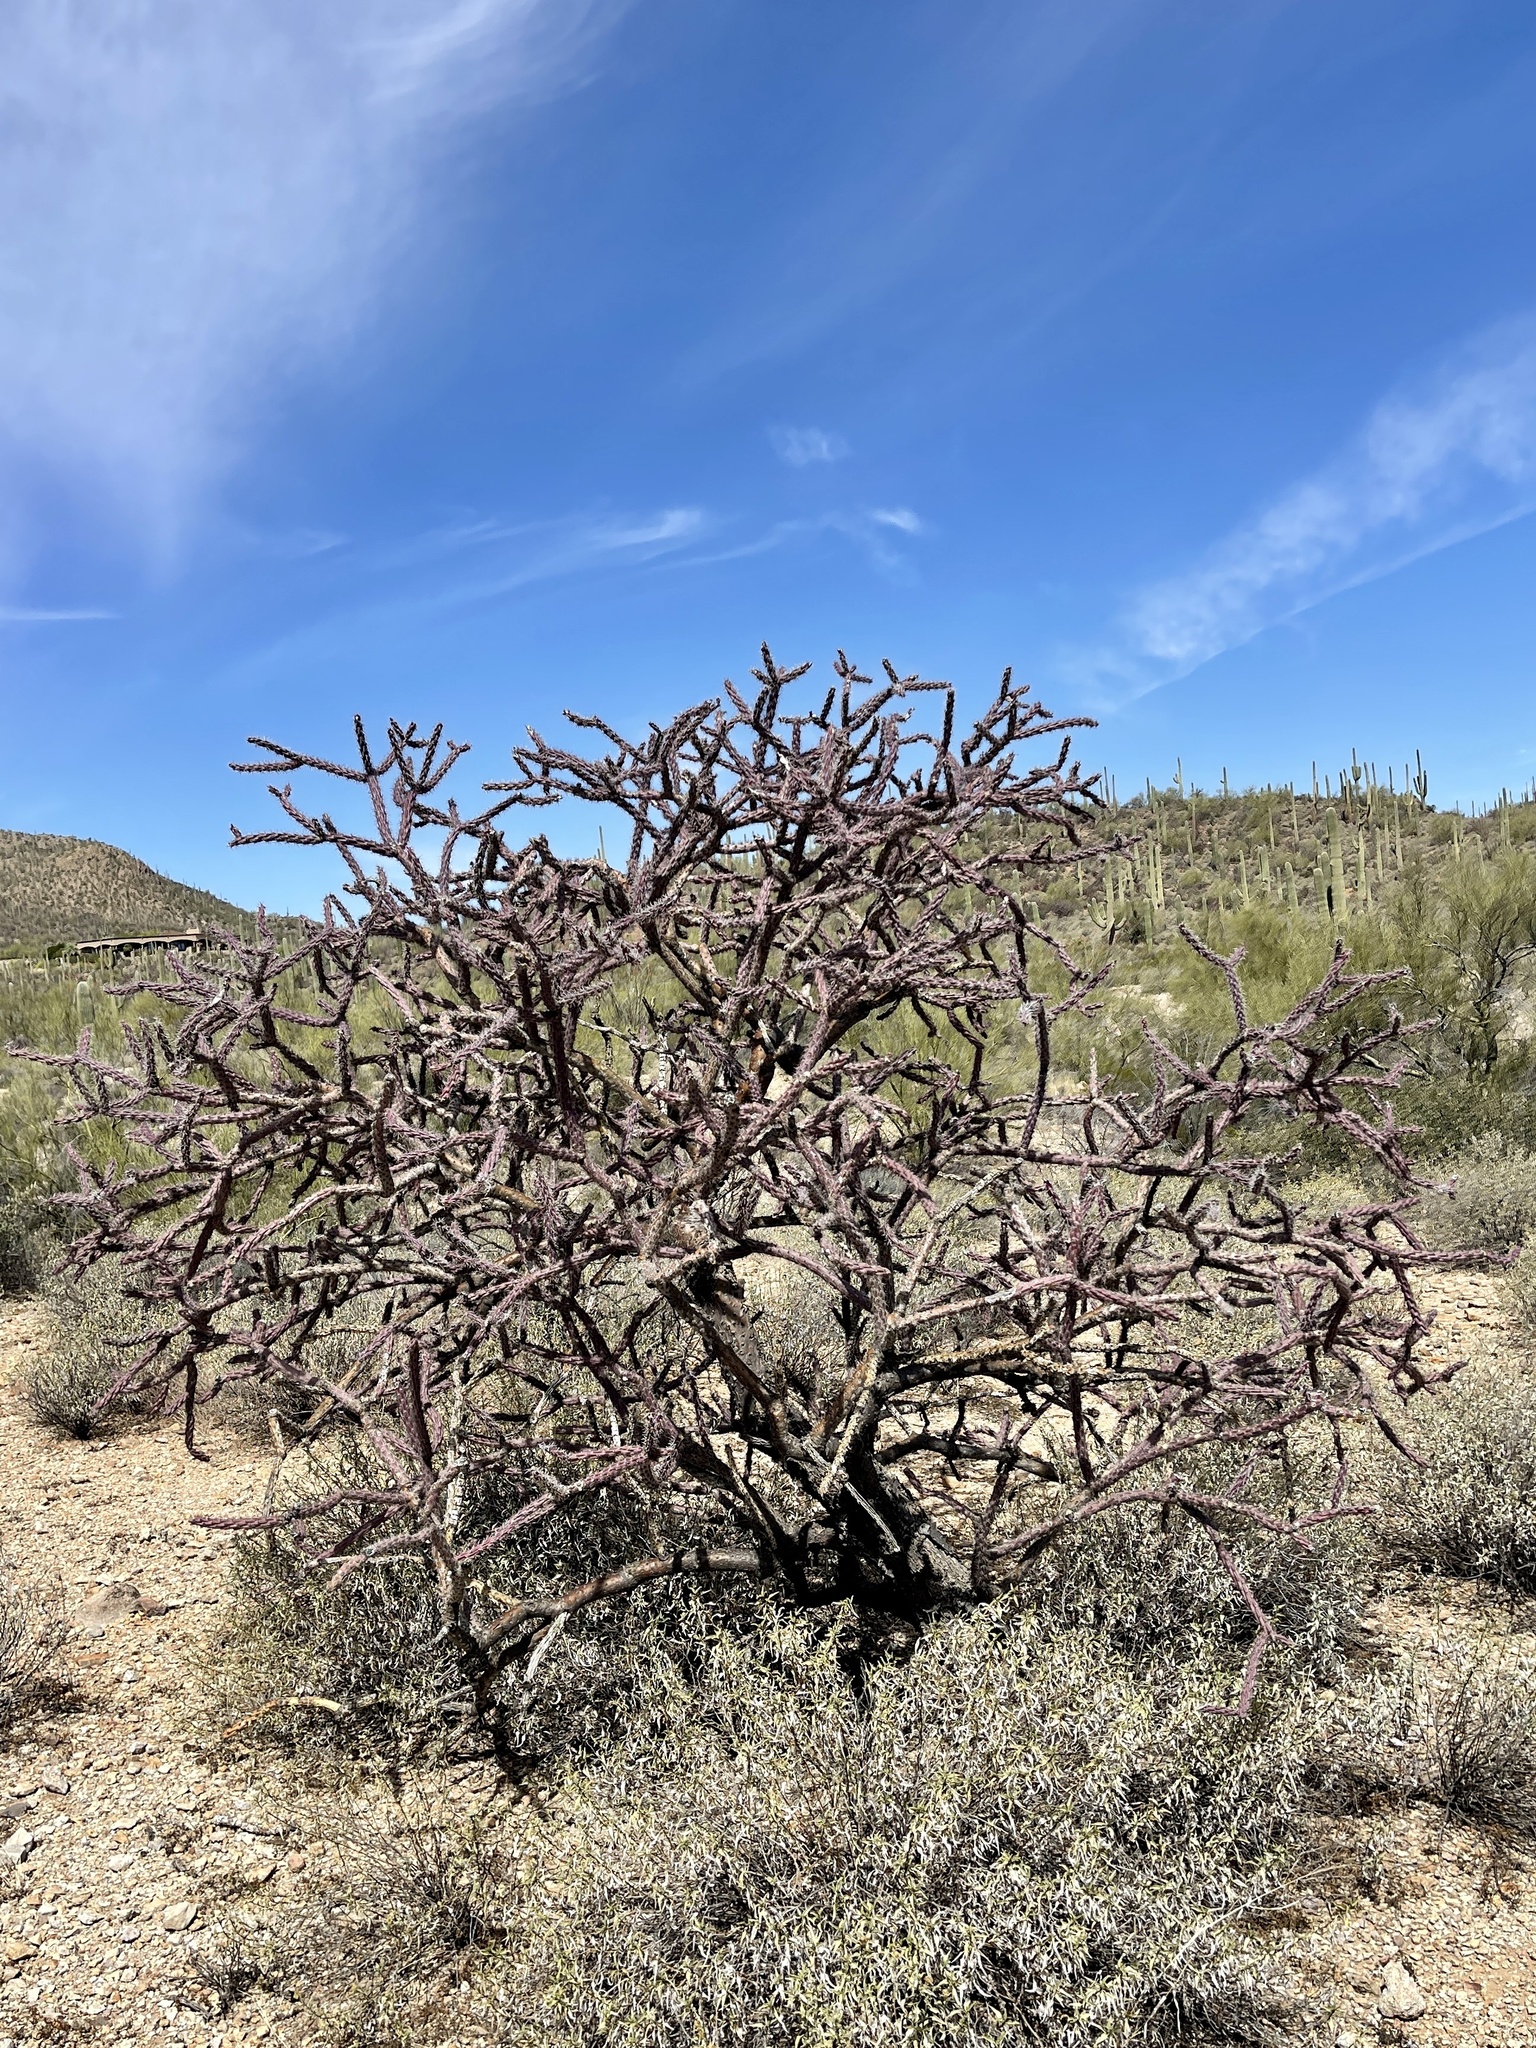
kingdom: Plantae
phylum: Tracheophyta
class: Magnoliopsida
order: Caryophyllales
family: Cactaceae
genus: Cylindropuntia
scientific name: Cylindropuntia thurberi
